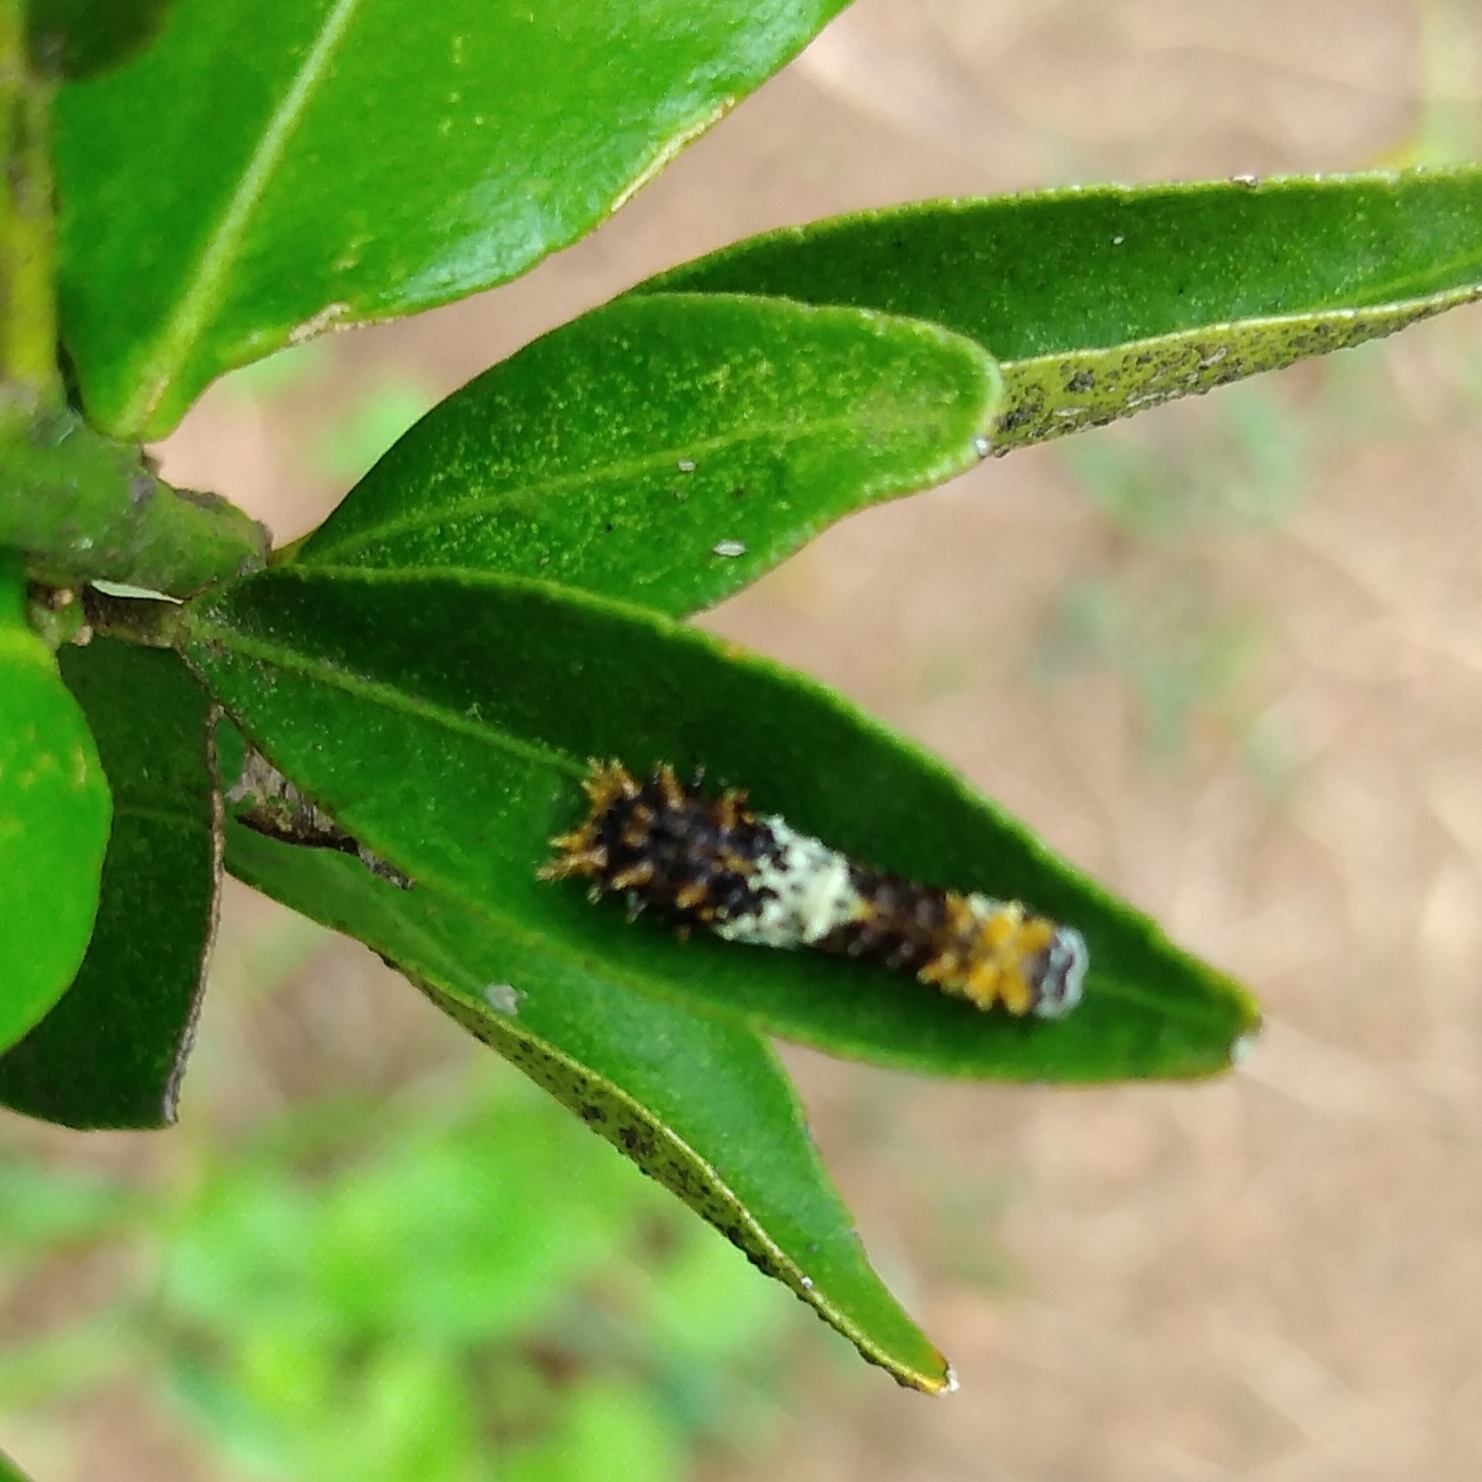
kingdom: Animalia
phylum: Arthropoda
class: Insecta
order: Lepidoptera
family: Papilionidae
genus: Papilio
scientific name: Papilio demodocus
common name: Christmas butterfly
